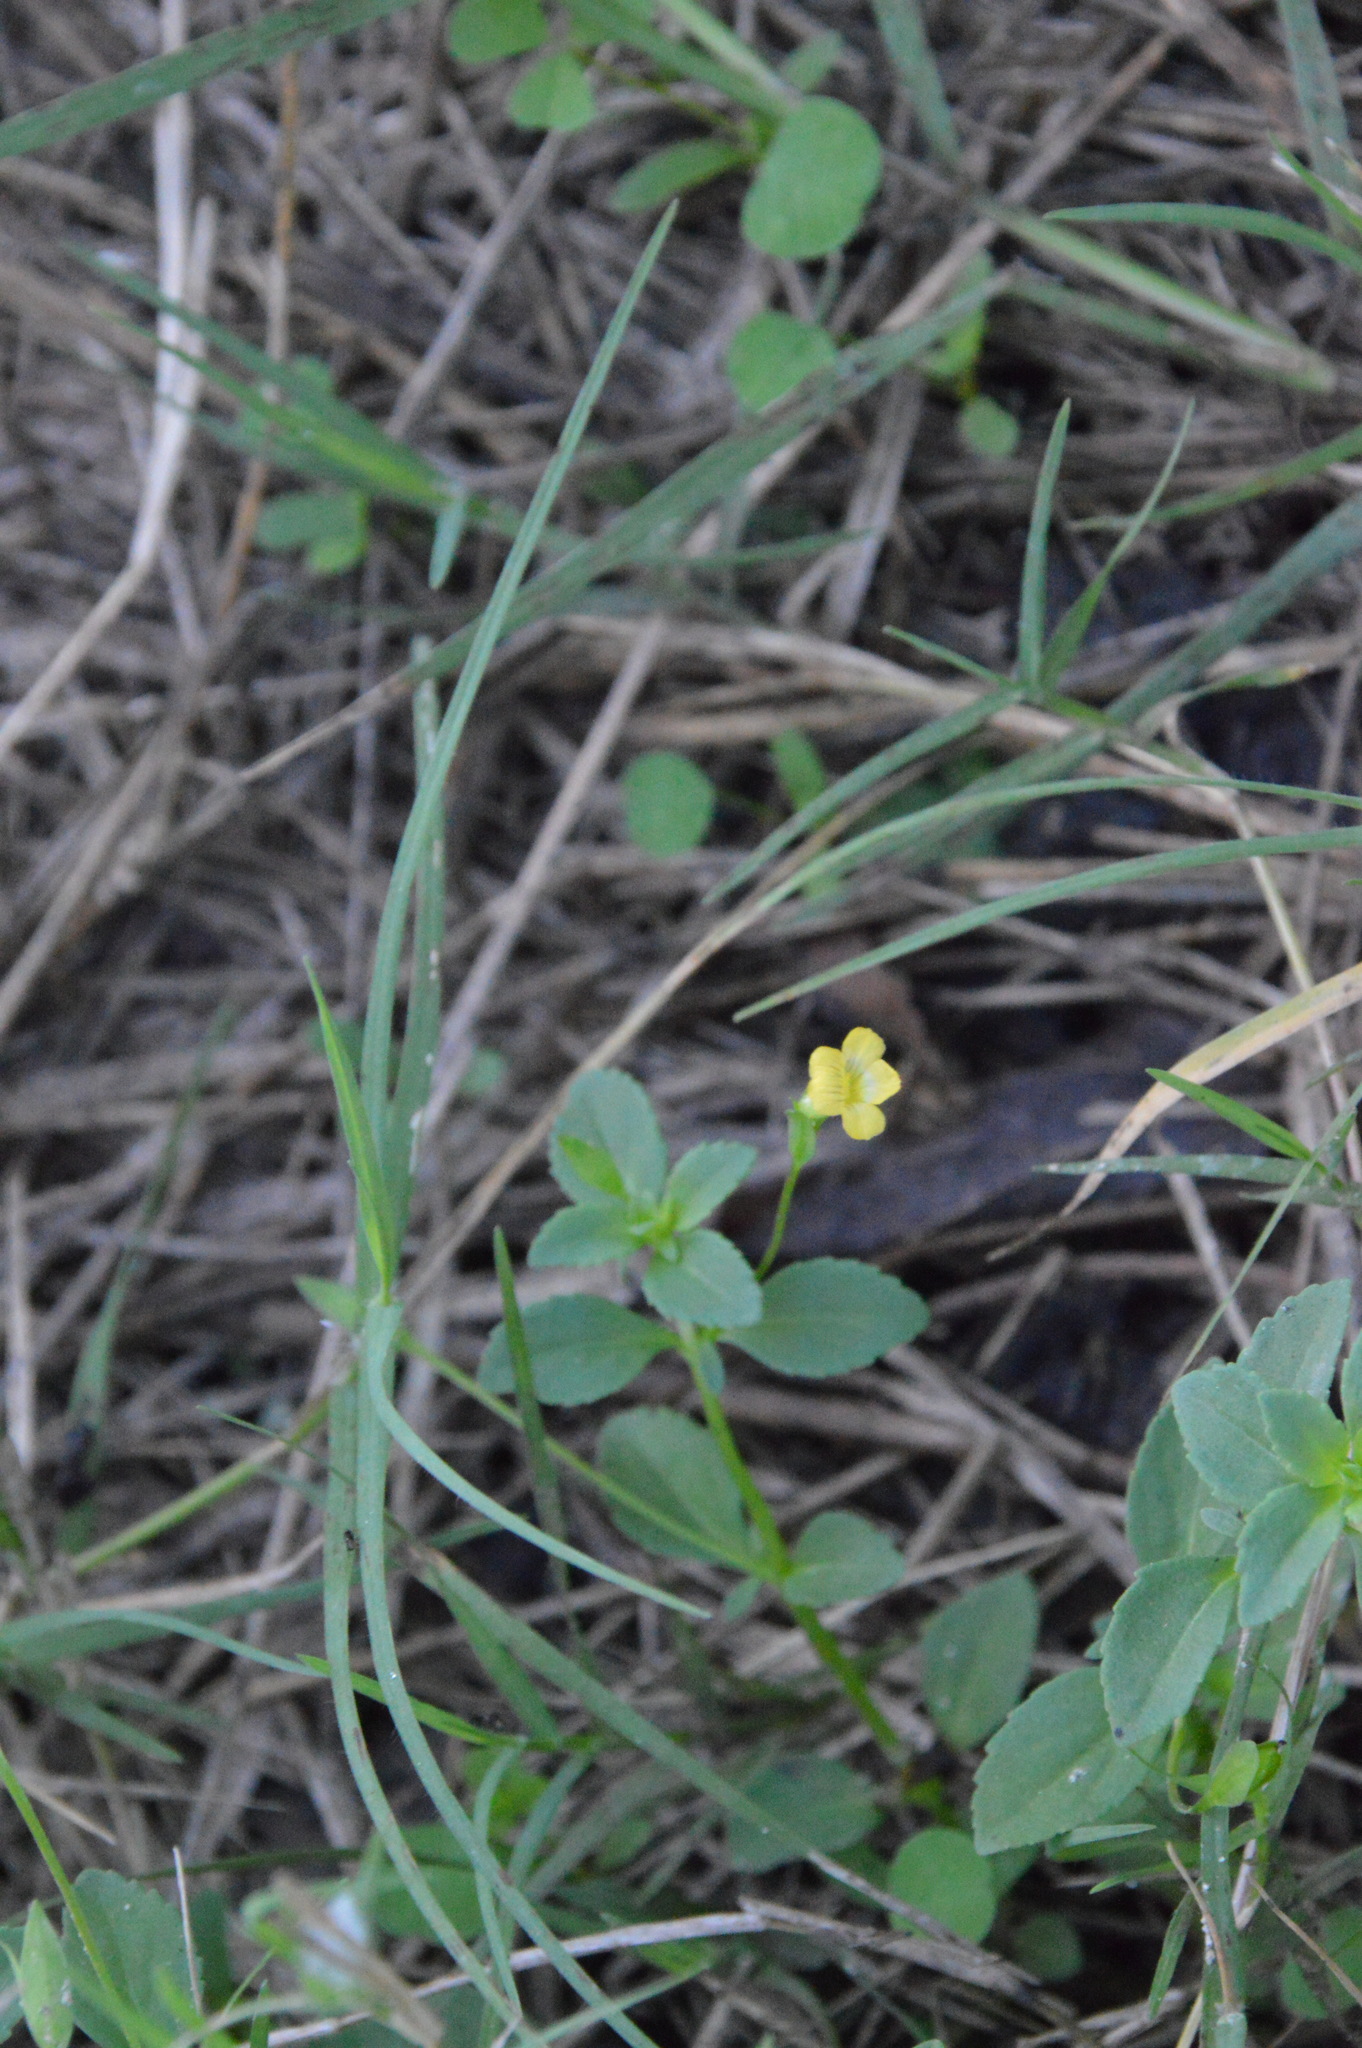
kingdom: Plantae
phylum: Tracheophyta
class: Magnoliopsida
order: Lamiales
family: Plantaginaceae
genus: Mecardonia
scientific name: Mecardonia procumbens
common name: Baby jump-up
